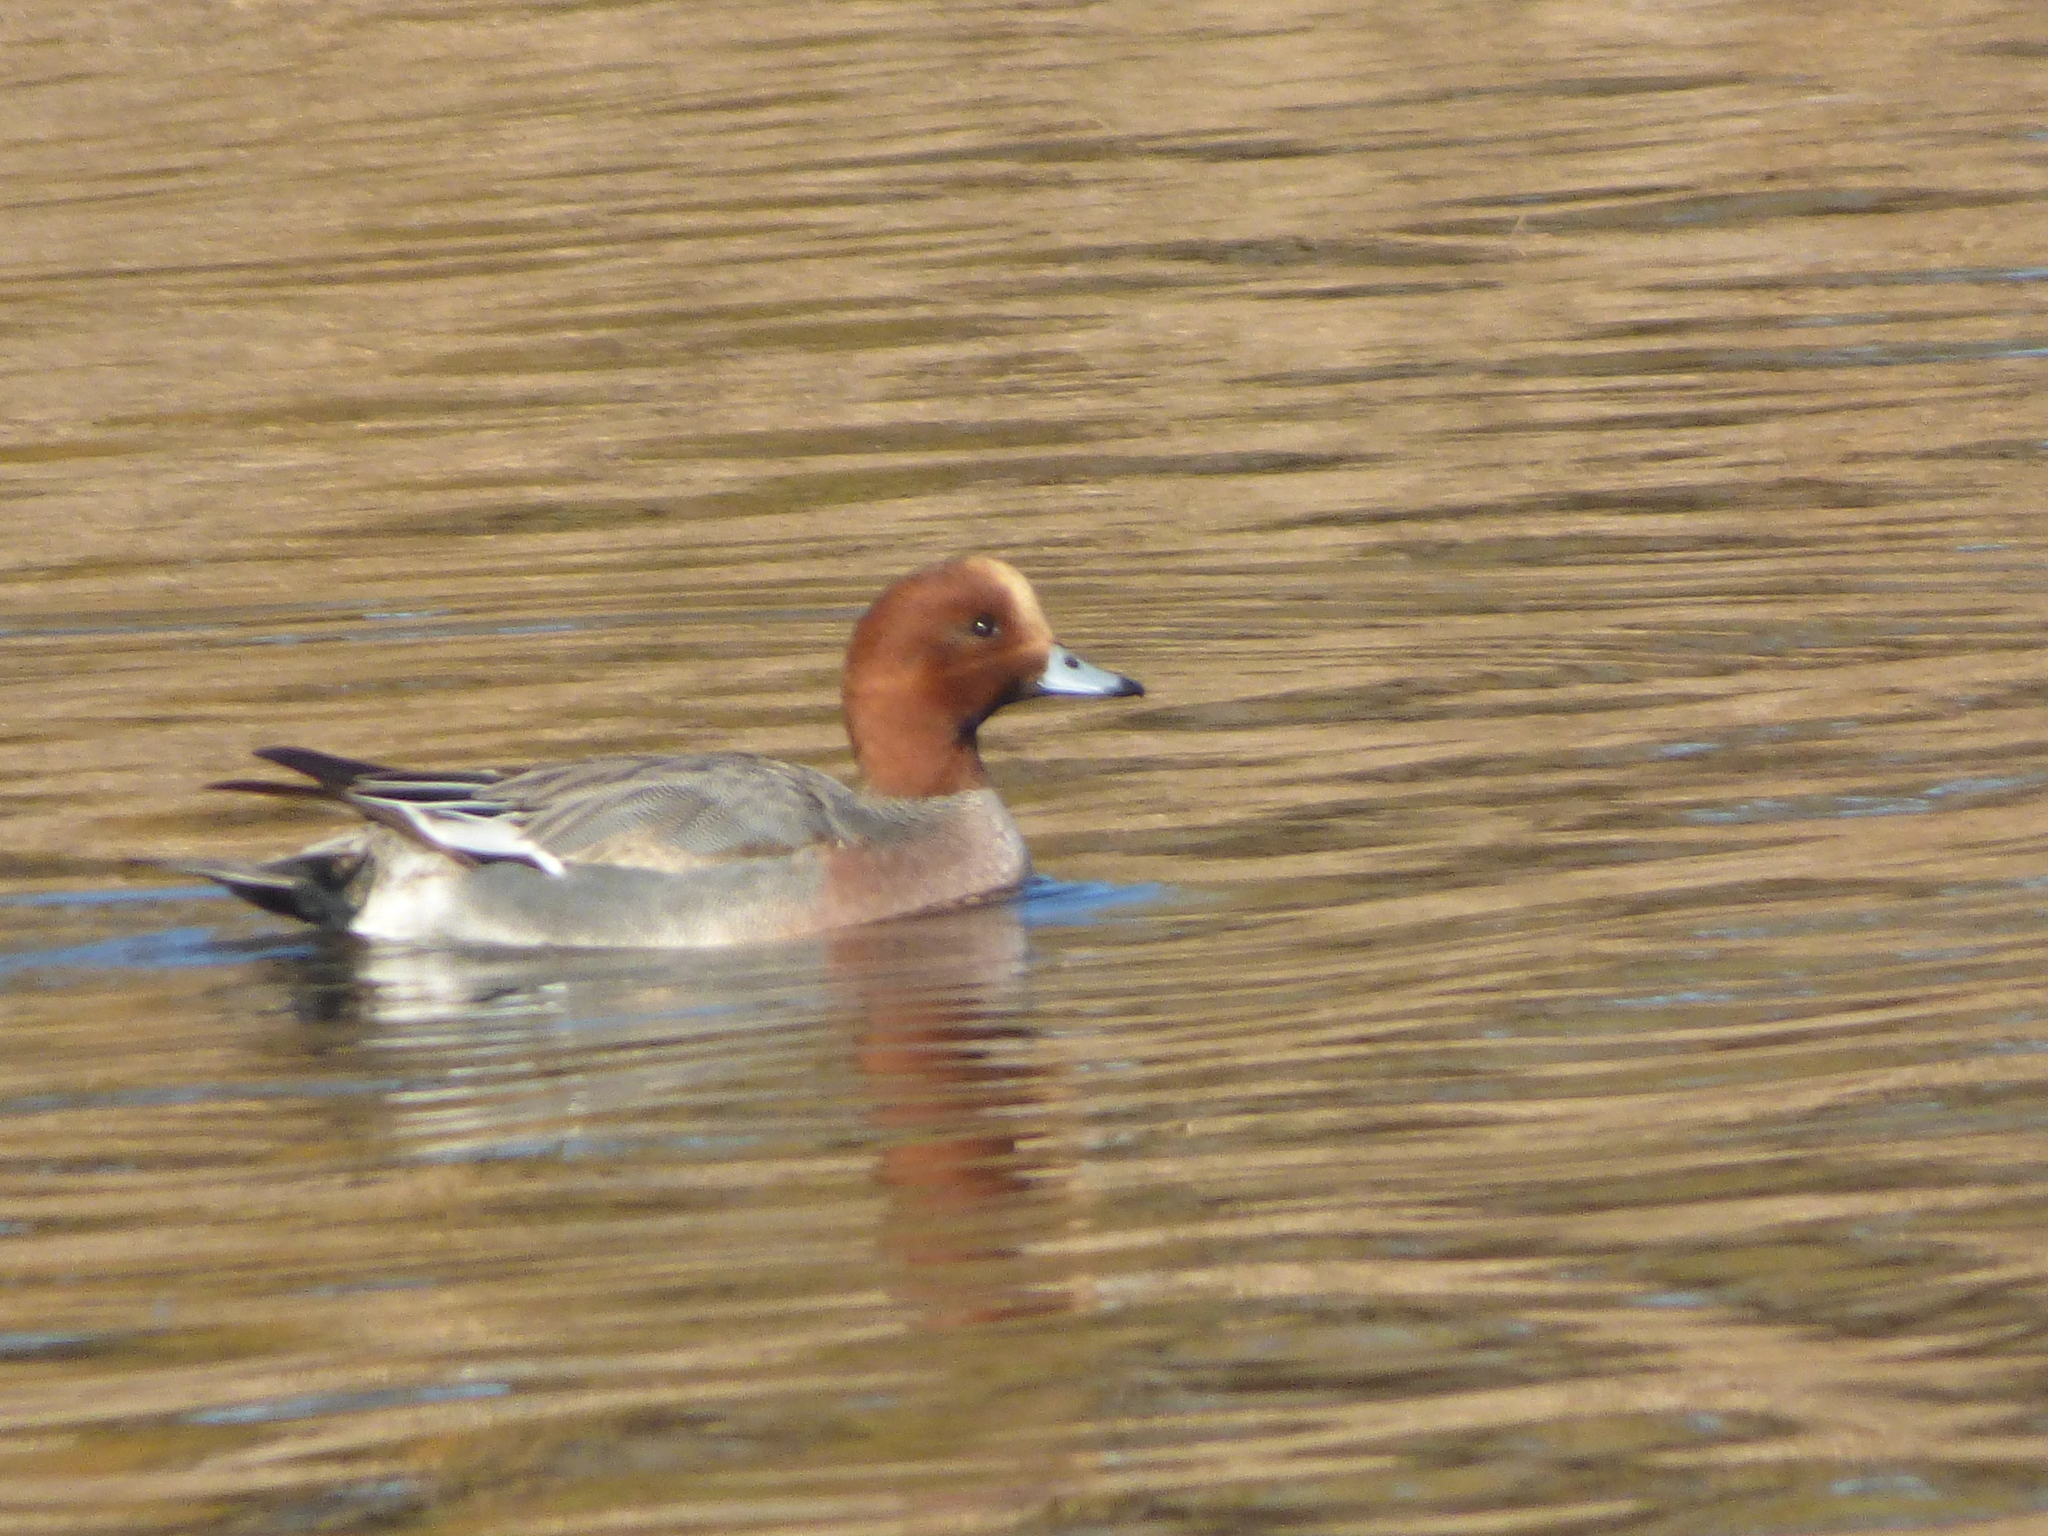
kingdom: Animalia
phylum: Chordata
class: Aves
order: Anseriformes
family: Anatidae
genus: Mareca
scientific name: Mareca penelope
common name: Eurasian wigeon
